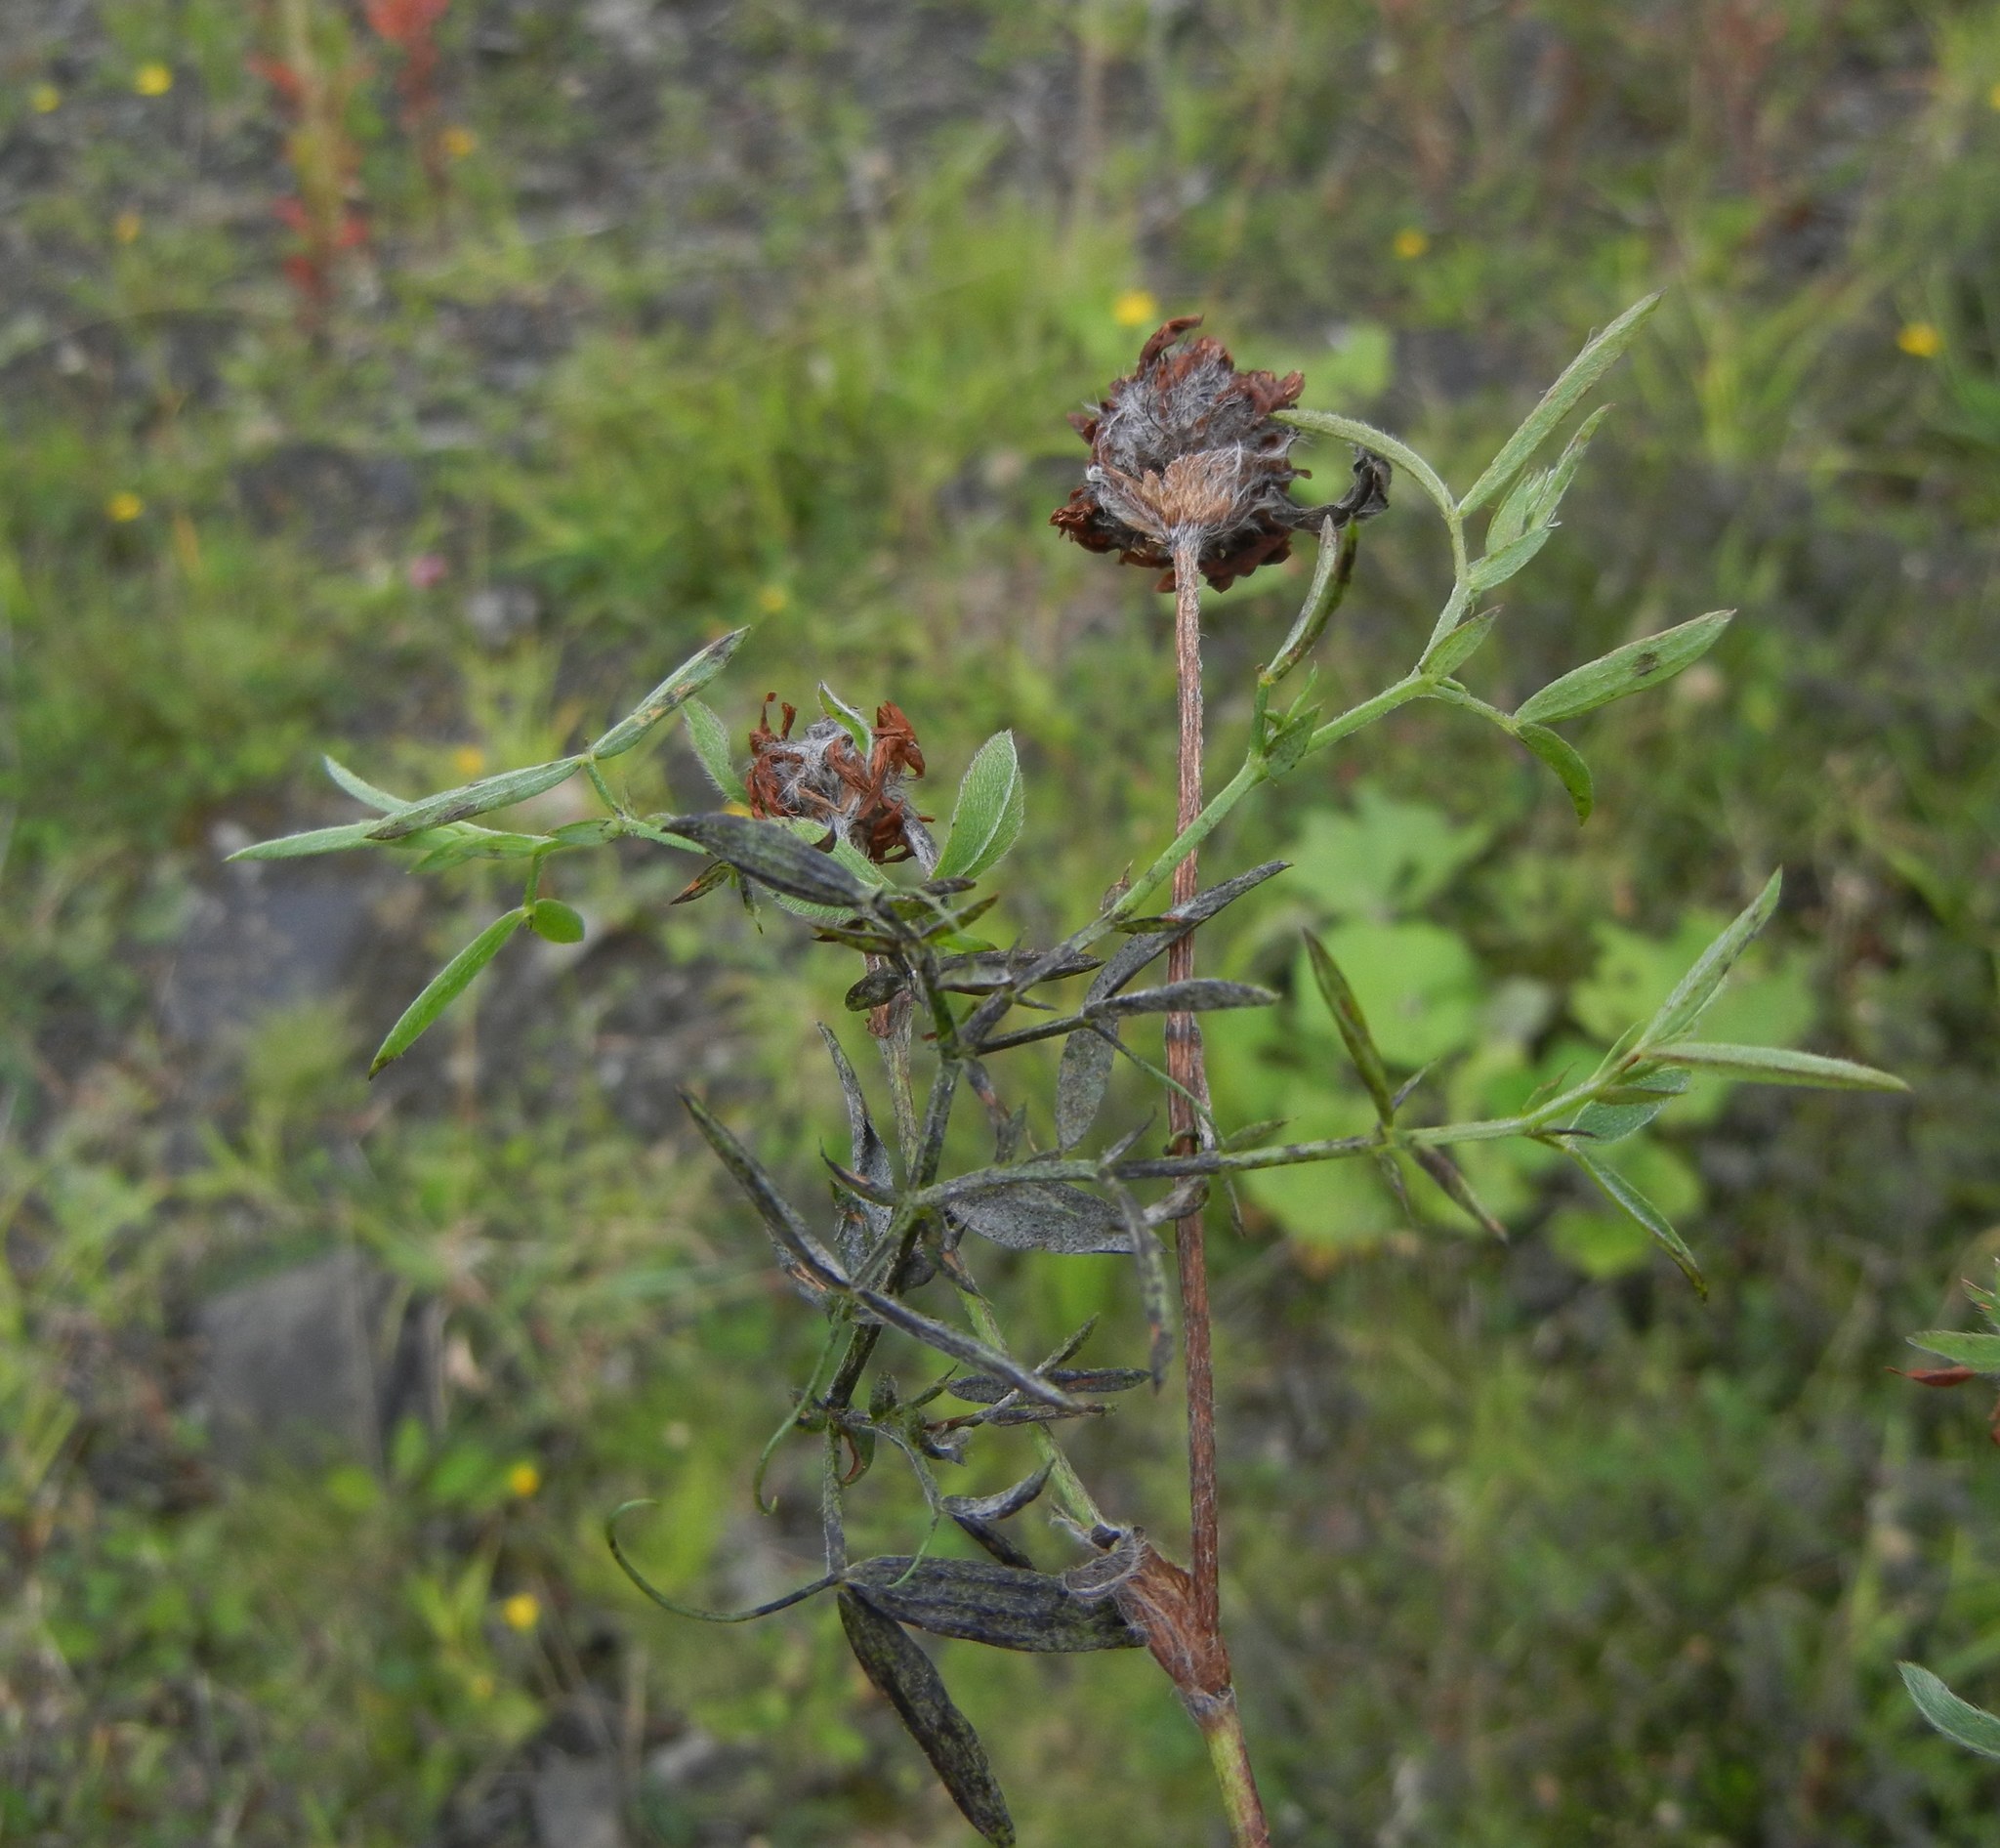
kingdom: Plantae
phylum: Tracheophyta
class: Magnoliopsida
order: Fabales
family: Fabaceae
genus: Lathyrus
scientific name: Lathyrus pratensis
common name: Meadow vetchling
